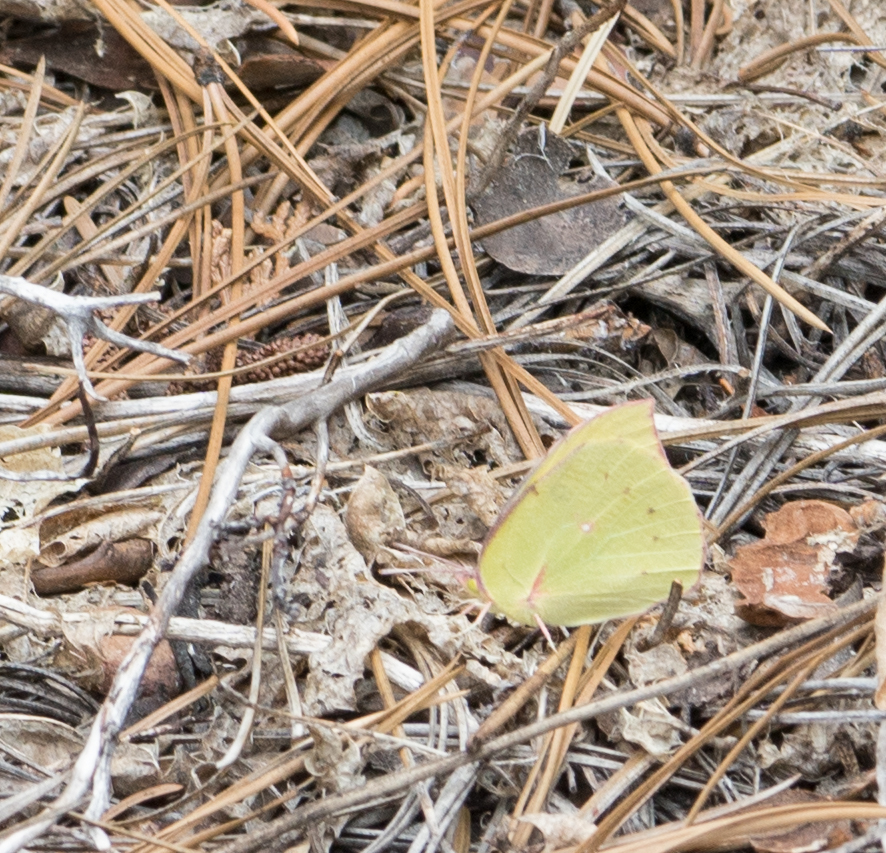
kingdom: Animalia
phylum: Arthropoda
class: Insecta
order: Lepidoptera
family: Pieridae
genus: Zerene
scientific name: Zerene eurydice
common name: California dogface
